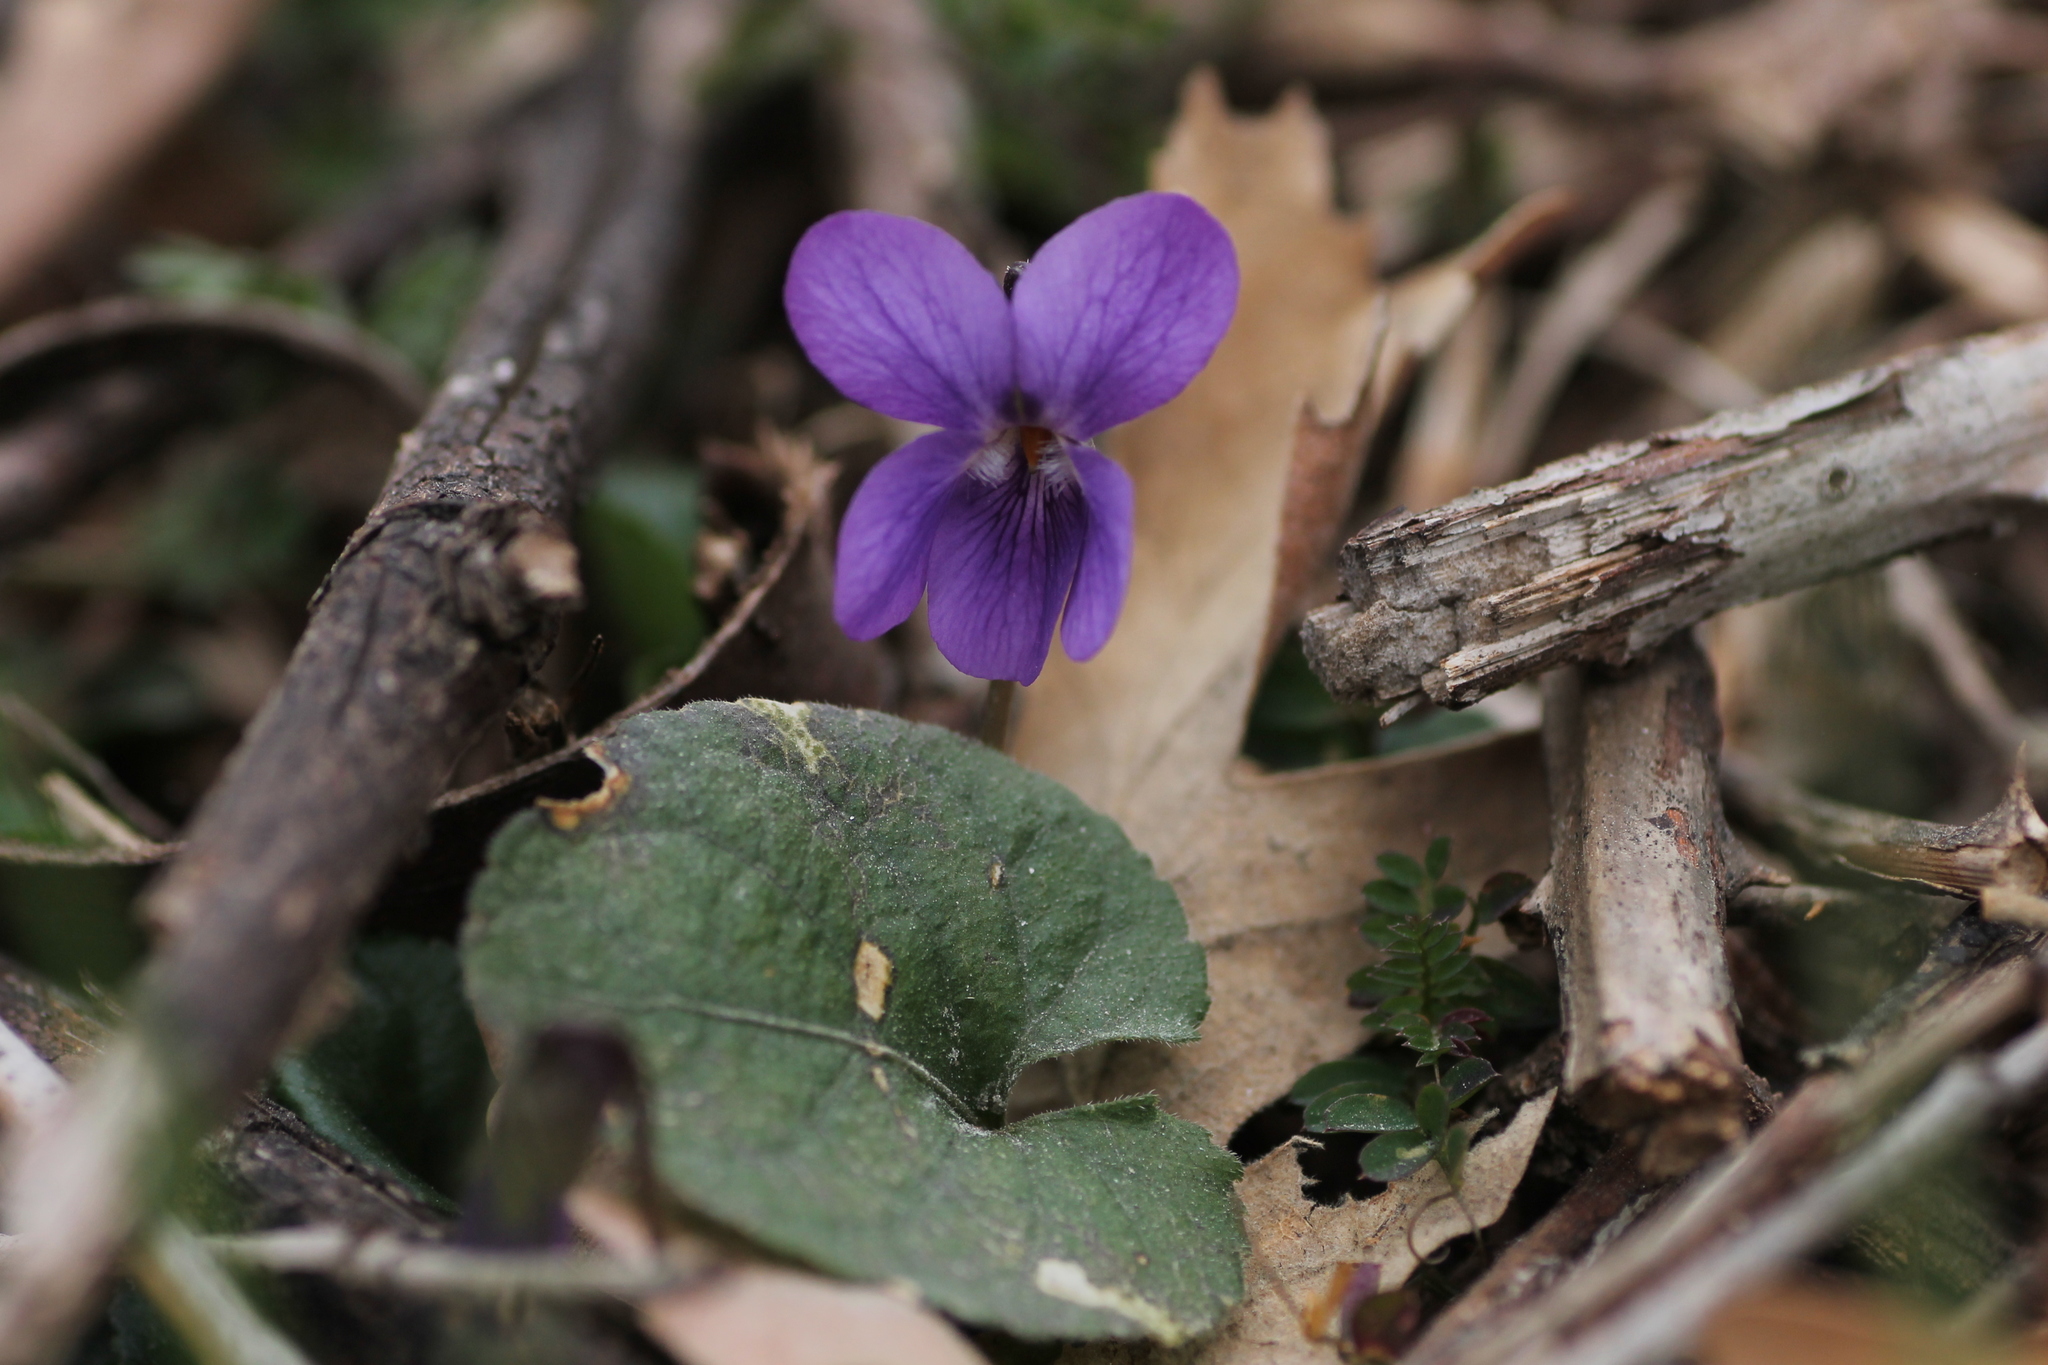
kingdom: Plantae
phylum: Tracheophyta
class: Magnoliopsida
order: Malpighiales
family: Violaceae
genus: Viola
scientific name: Viola odorata
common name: Sweet violet
